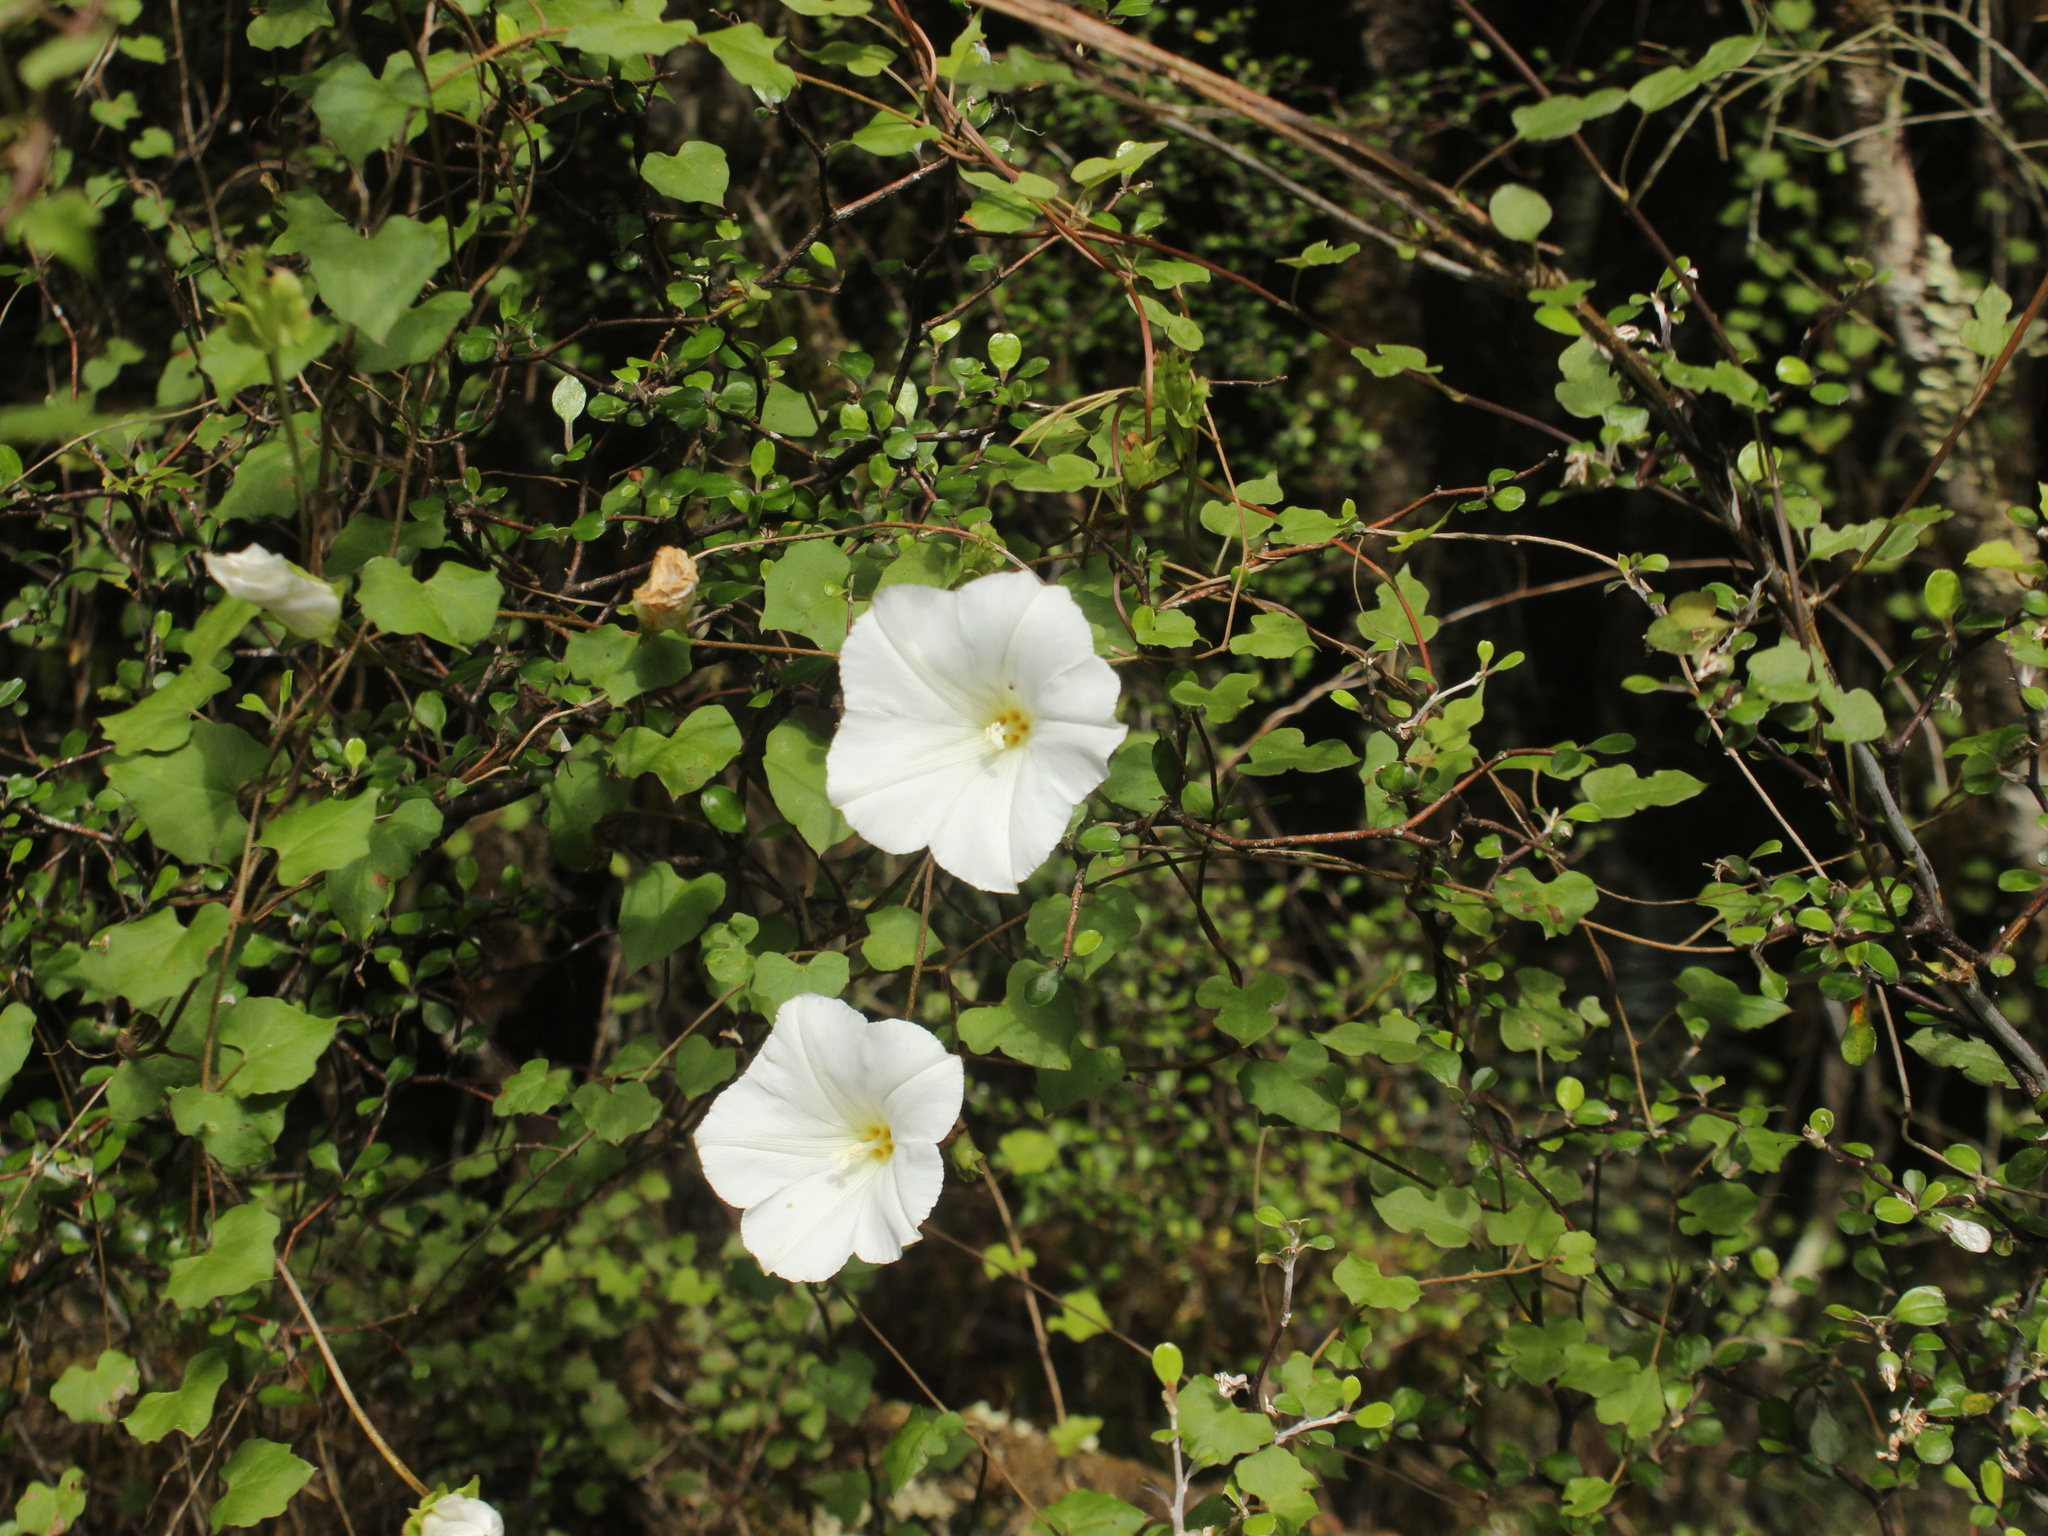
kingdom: Plantae
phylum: Tracheophyta
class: Magnoliopsida
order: Solanales
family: Convolvulaceae
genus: Calystegia
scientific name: Calystegia tuguriorum
